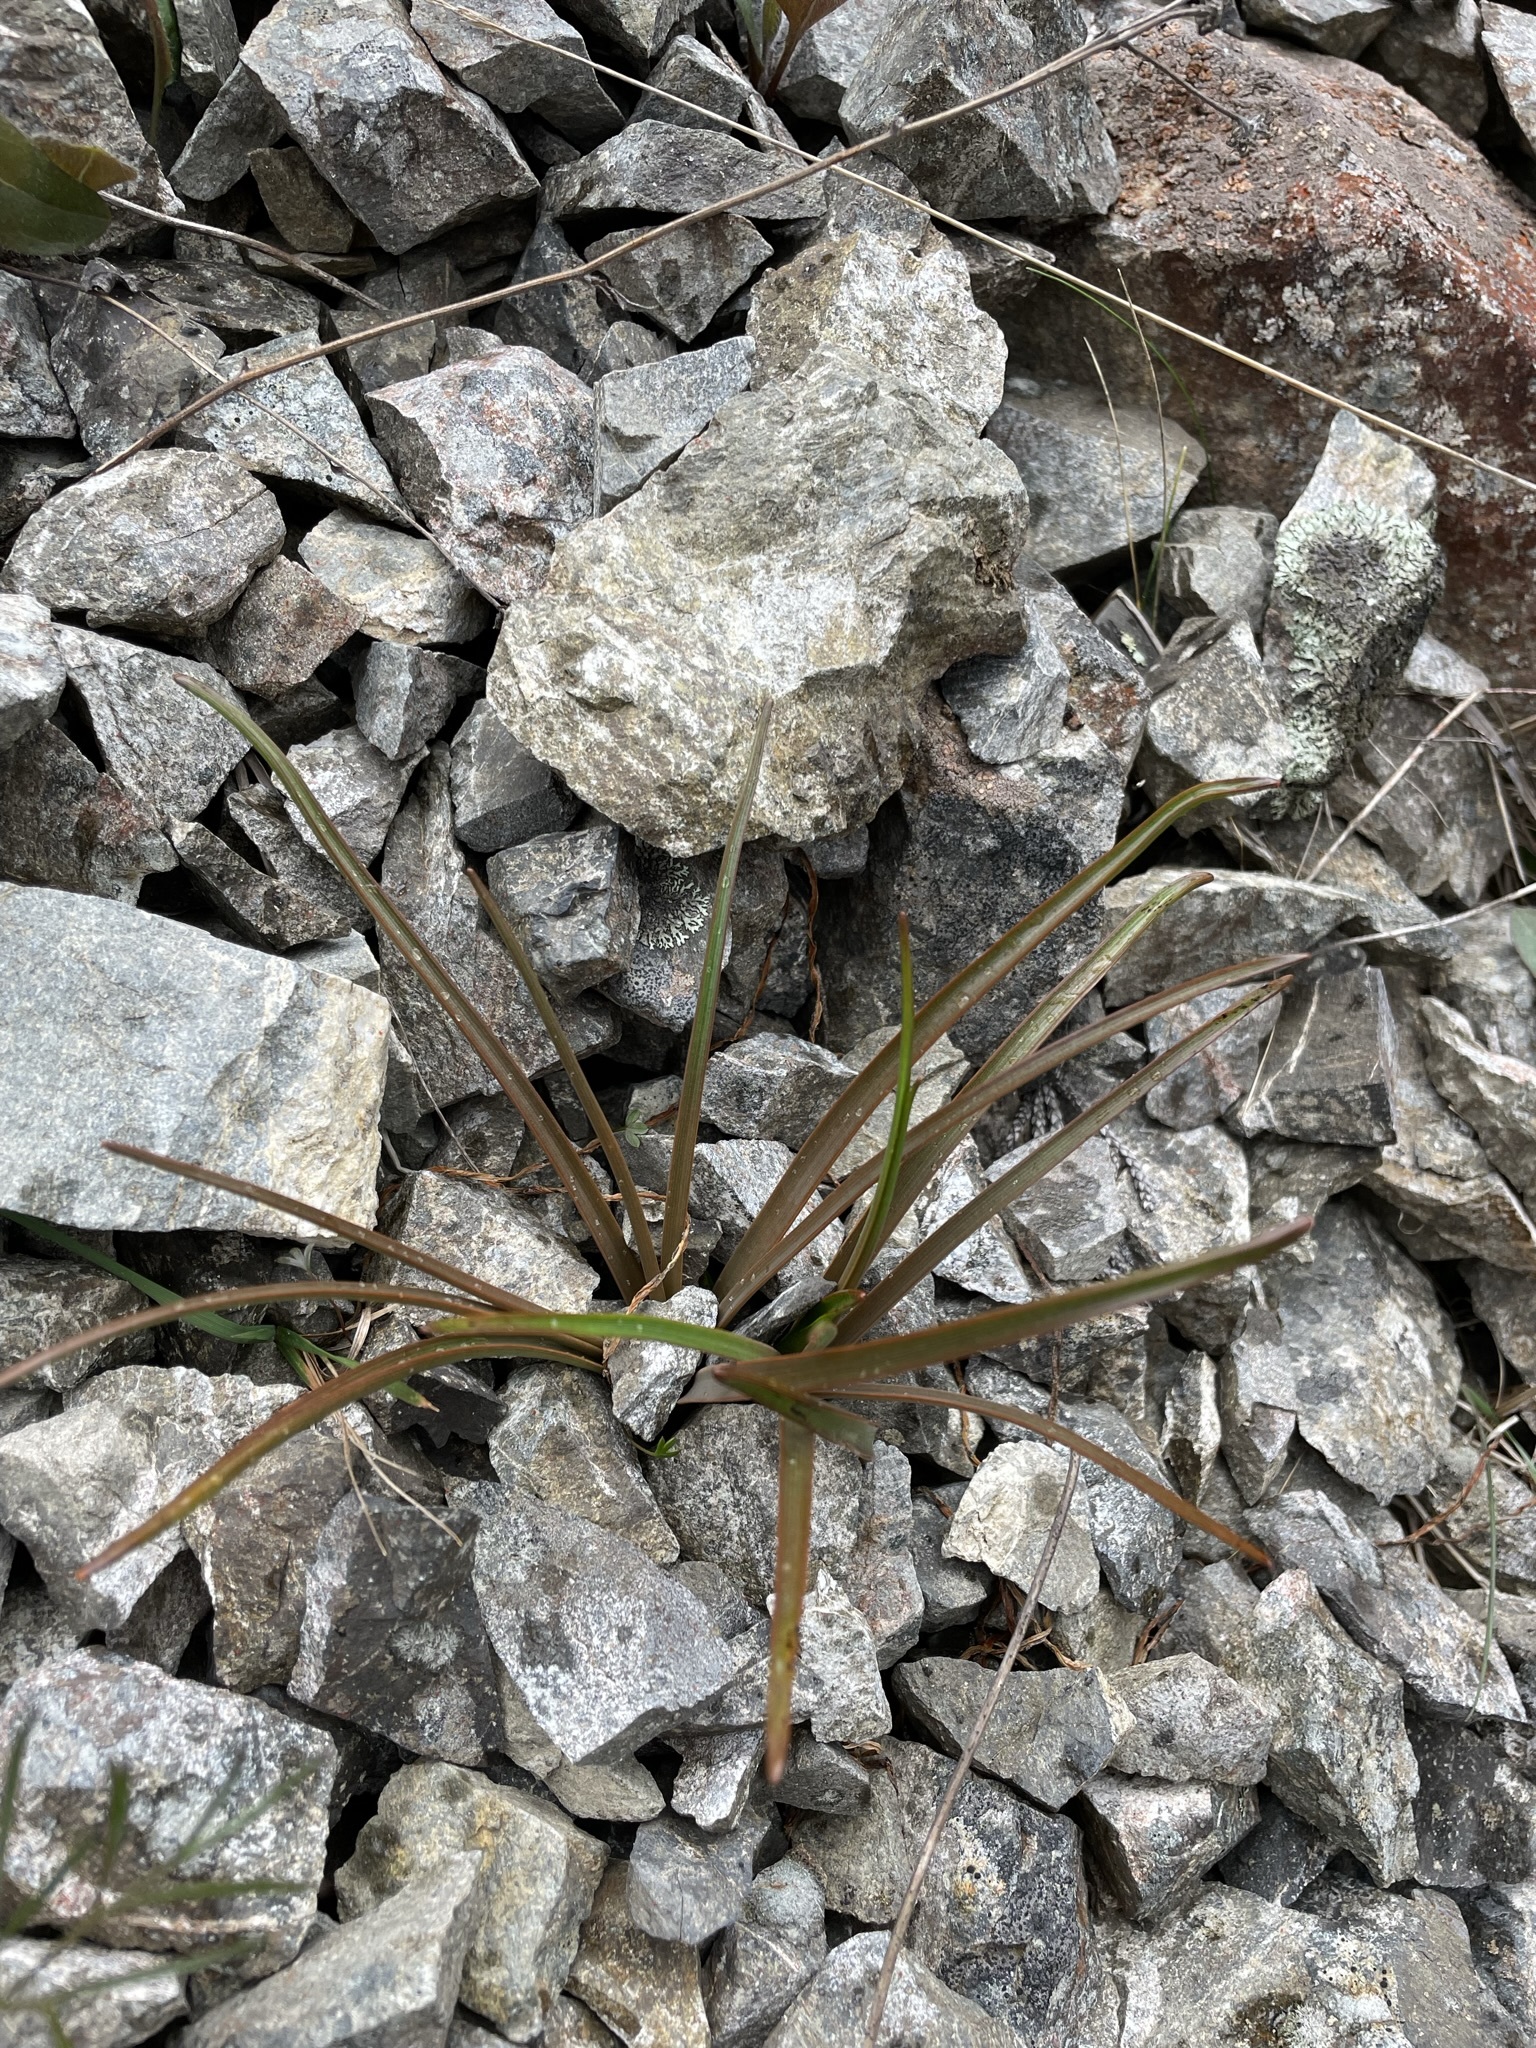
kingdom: Plantae
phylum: Tracheophyta
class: Liliopsida
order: Asparagales
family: Asphodelaceae
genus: Bulbinella
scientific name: Bulbinella angustifolia
